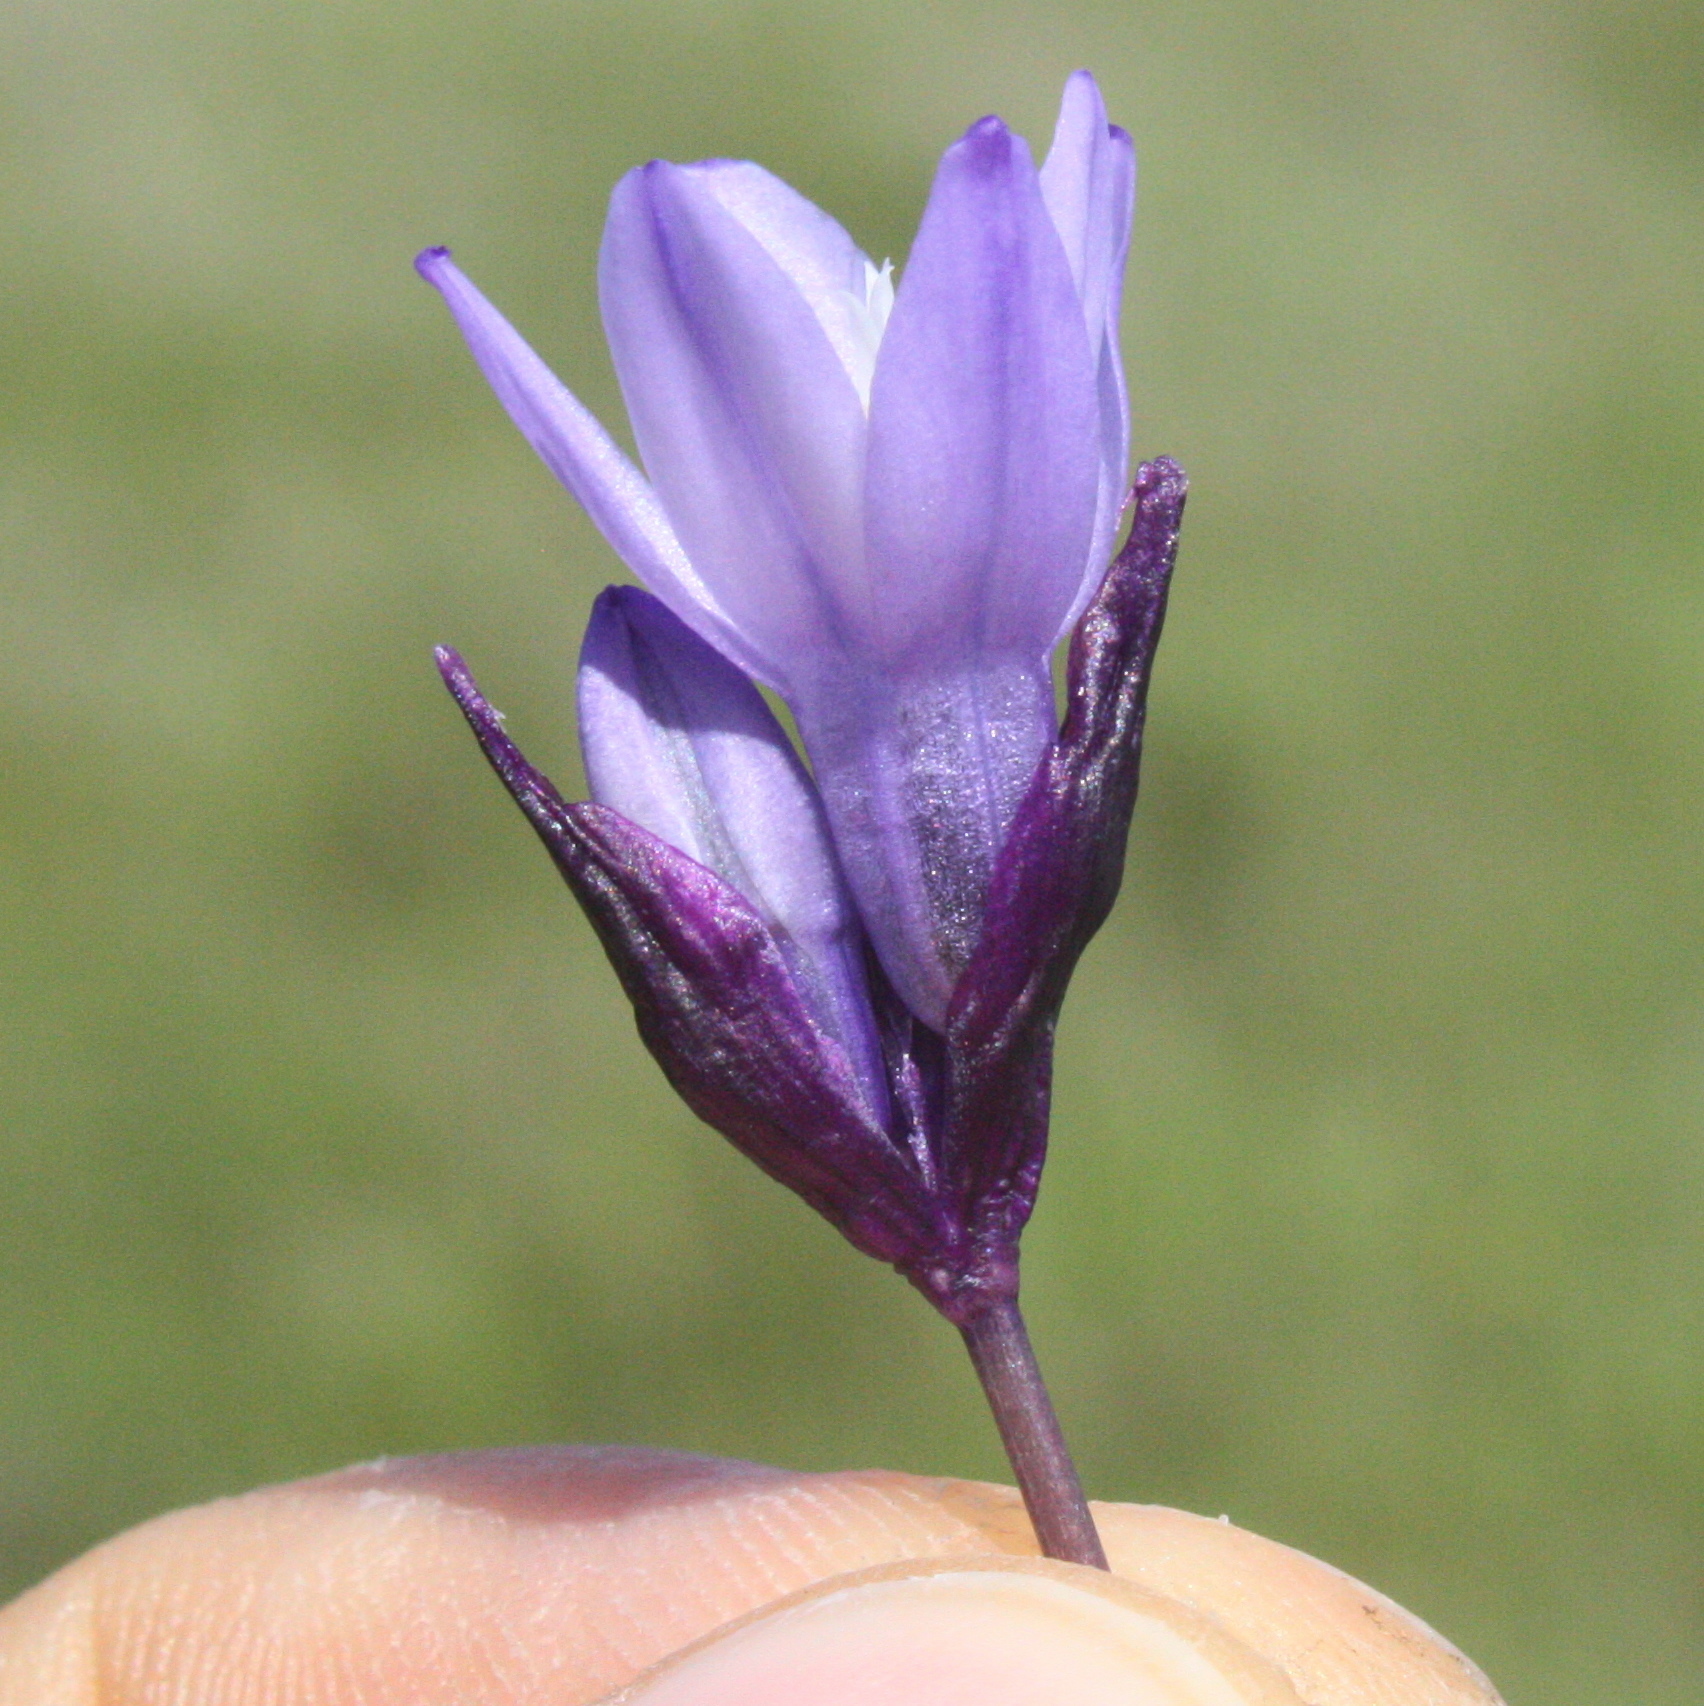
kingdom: Plantae
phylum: Tracheophyta
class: Liliopsida
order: Asparagales
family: Asparagaceae
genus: Dipterostemon
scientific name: Dipterostemon capitatus
